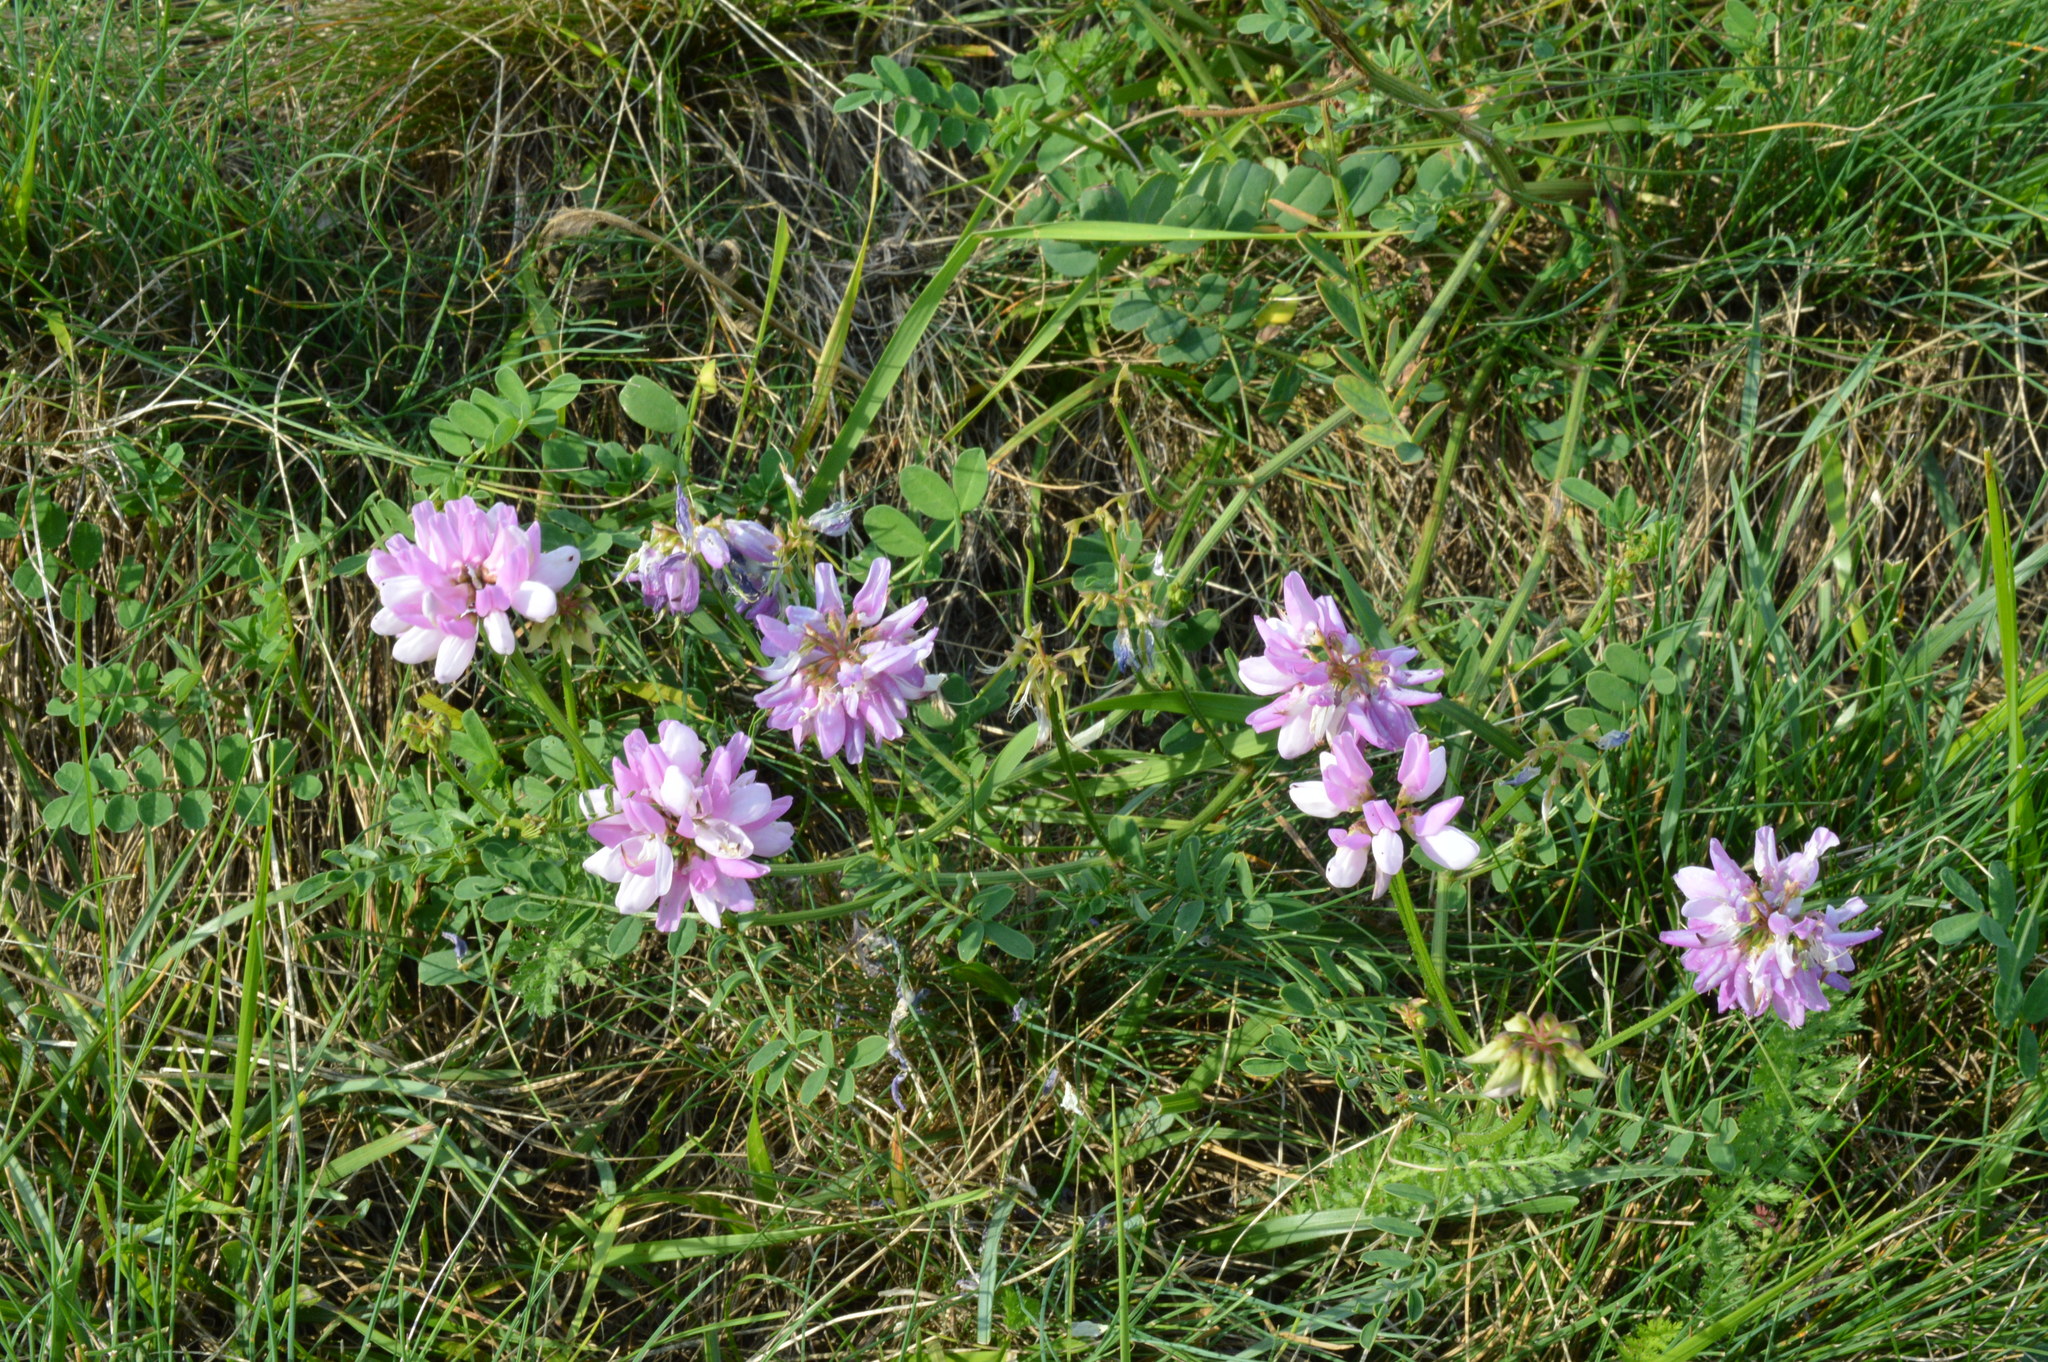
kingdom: Plantae
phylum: Tracheophyta
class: Magnoliopsida
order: Fabales
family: Fabaceae
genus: Coronilla
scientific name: Coronilla varia
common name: Crownvetch
